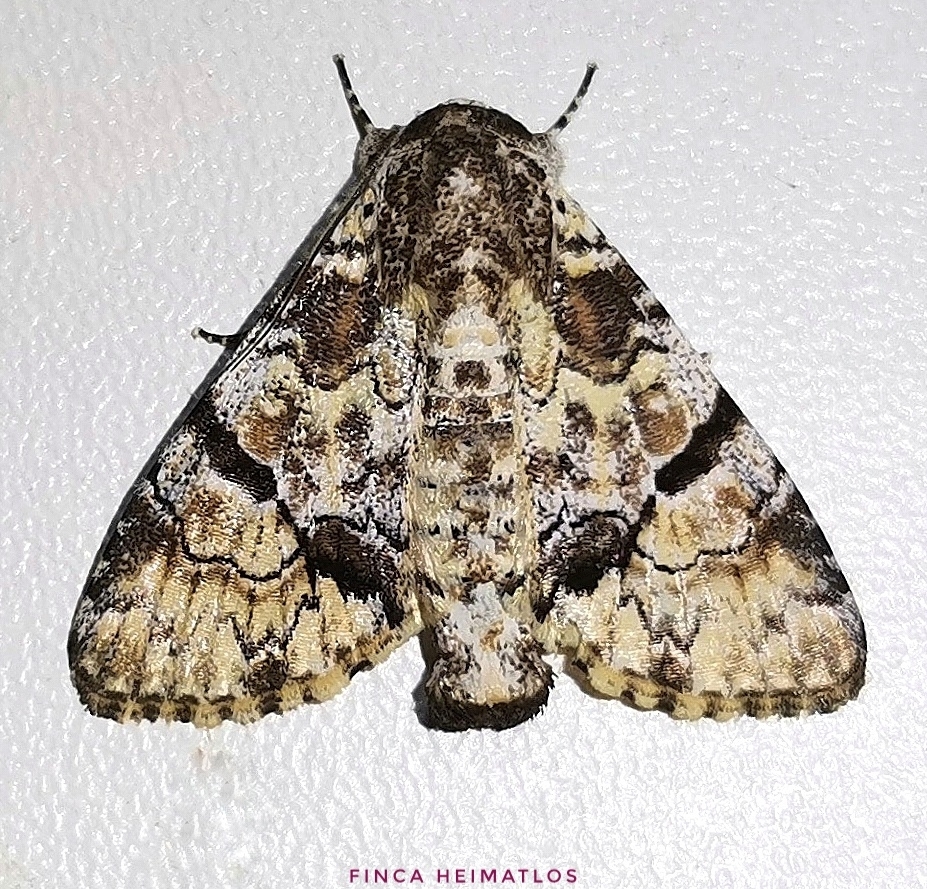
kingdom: Animalia
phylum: Arthropoda
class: Insecta
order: Lepidoptera
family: Nolidae
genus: Hayesia
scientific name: Hayesia Stictothripa albescens
